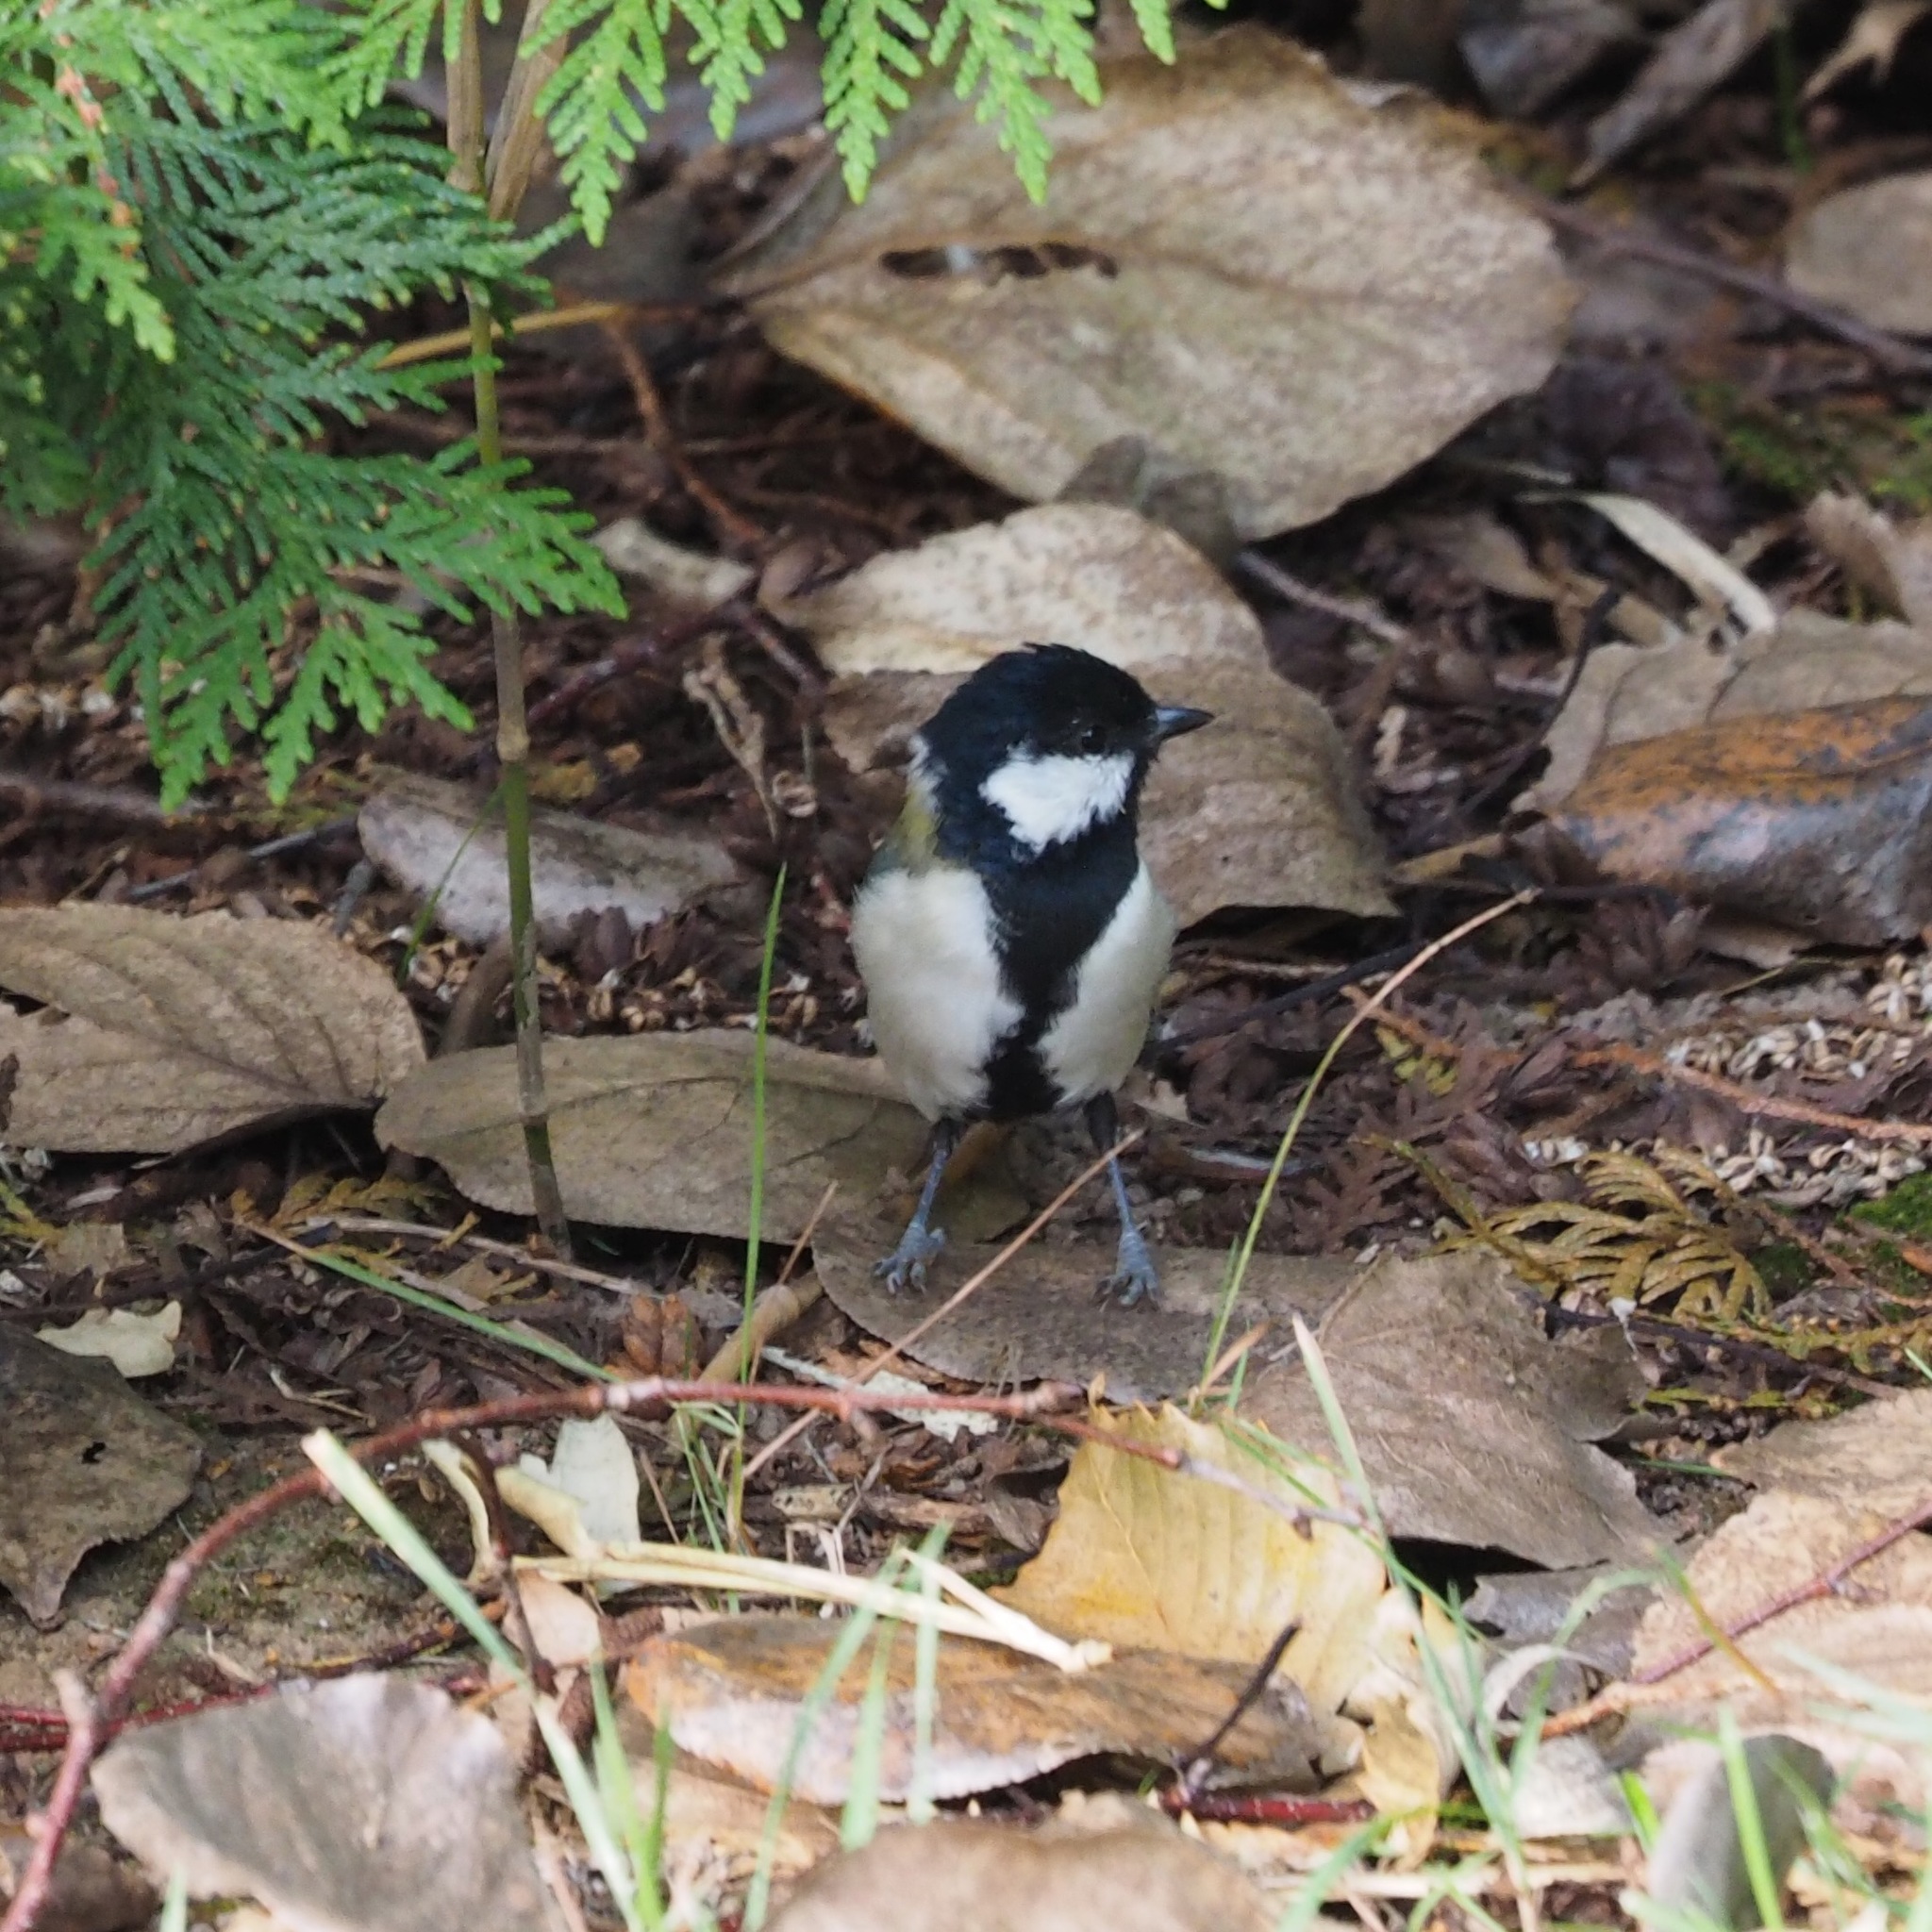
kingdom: Animalia
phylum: Chordata
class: Aves
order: Passeriformes
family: Paridae
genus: Parus
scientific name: Parus minor
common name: Japanese tit
